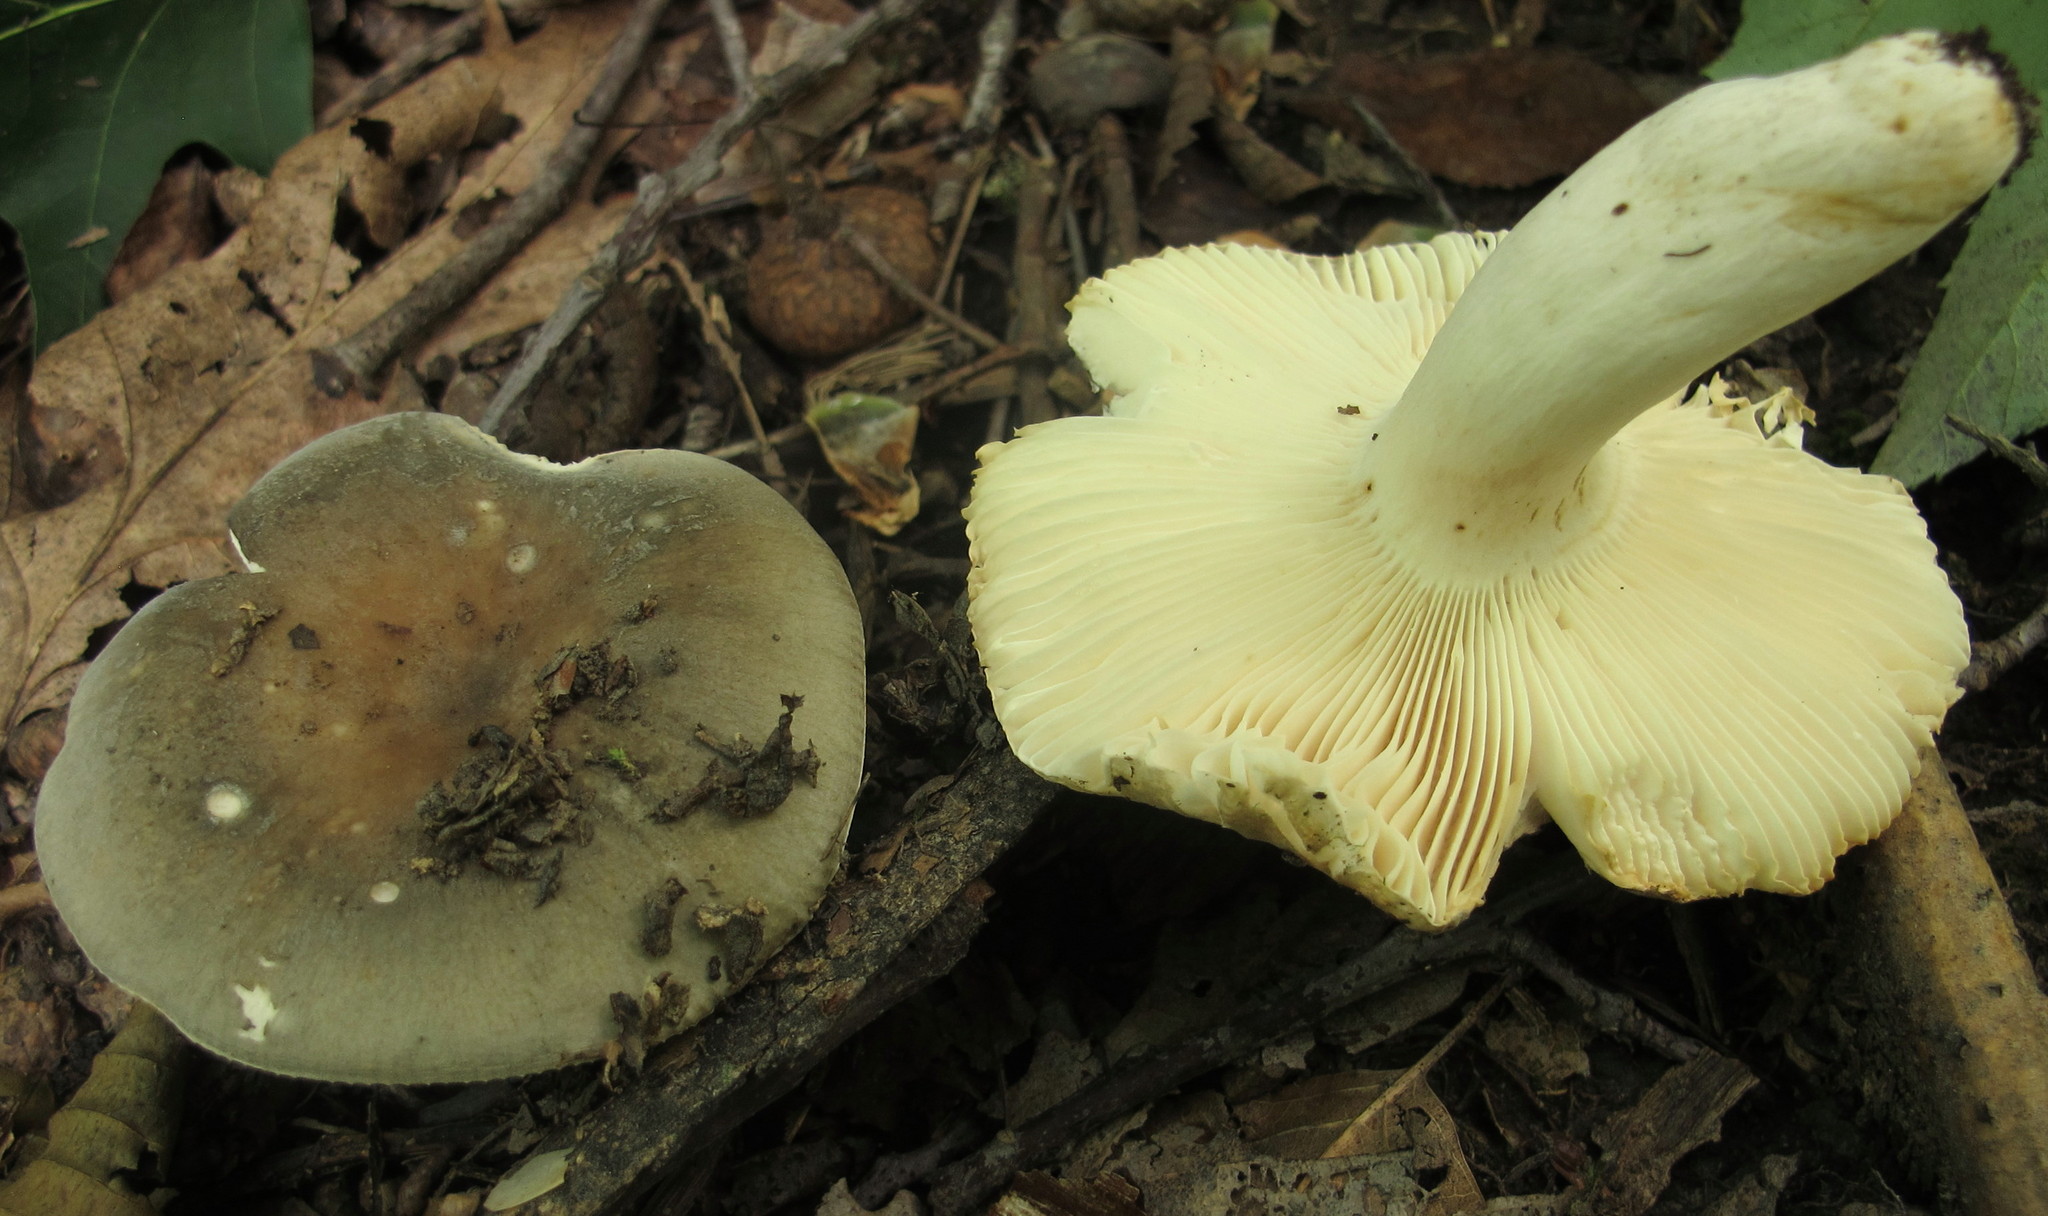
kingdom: Fungi
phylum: Basidiomycota
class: Agaricomycetes
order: Russulales
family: Russulaceae
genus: Russula
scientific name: Russula modesta
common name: Modest russula
